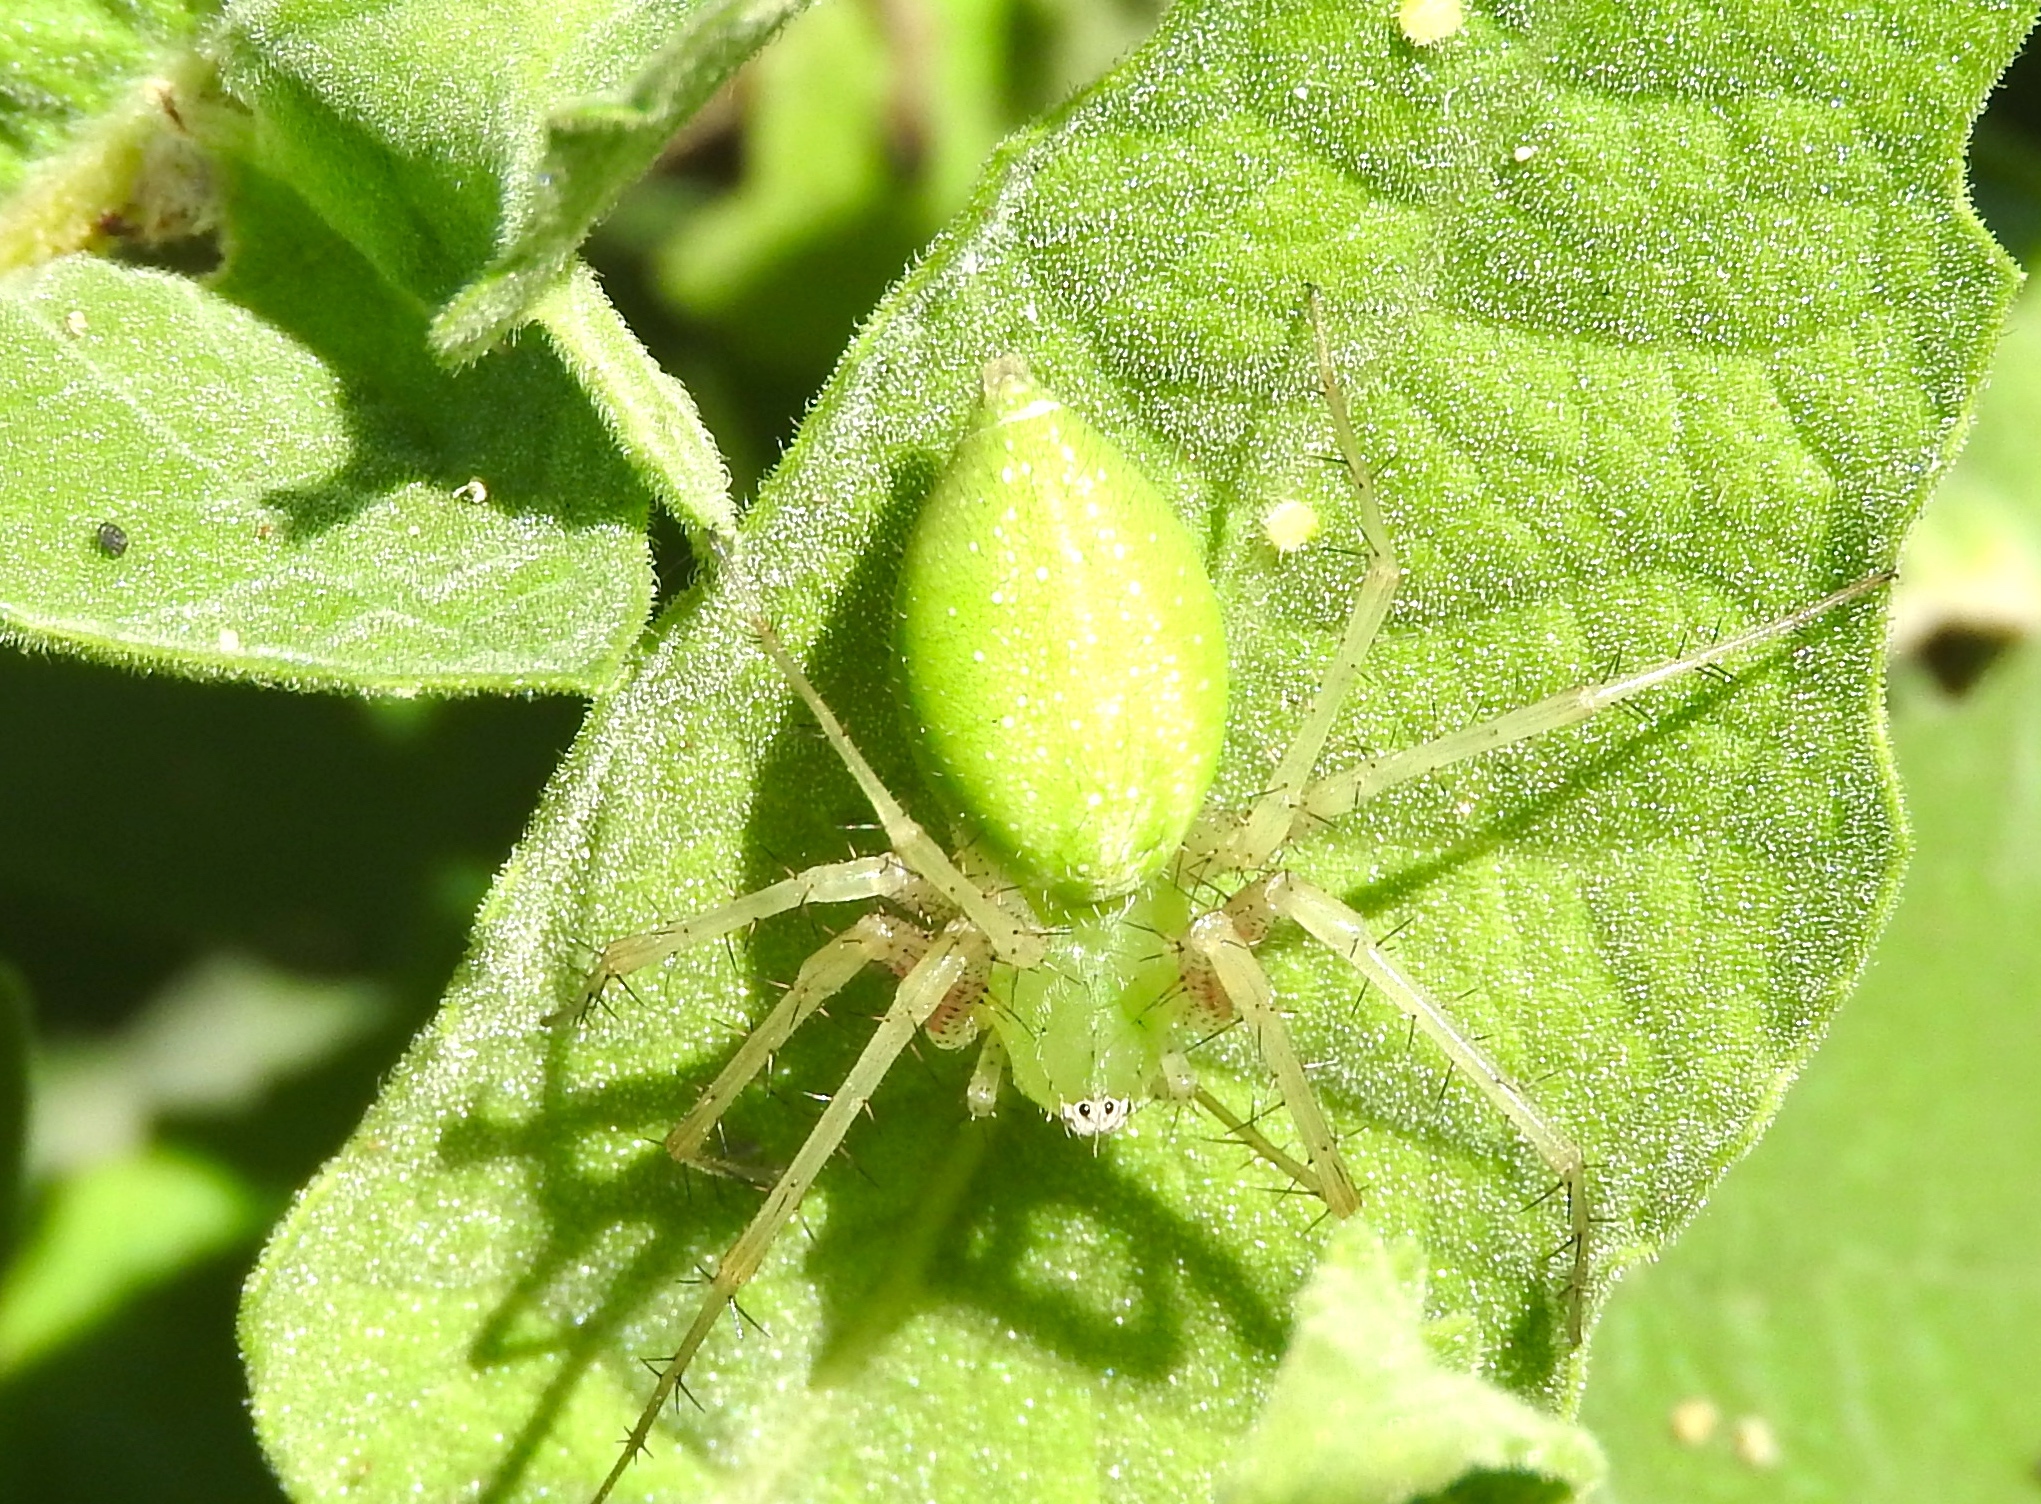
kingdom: Animalia
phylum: Arthropoda
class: Arachnida
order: Araneae
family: Oxyopidae
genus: Peucetia
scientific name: Peucetia longipalpis
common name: Lynx spiders
